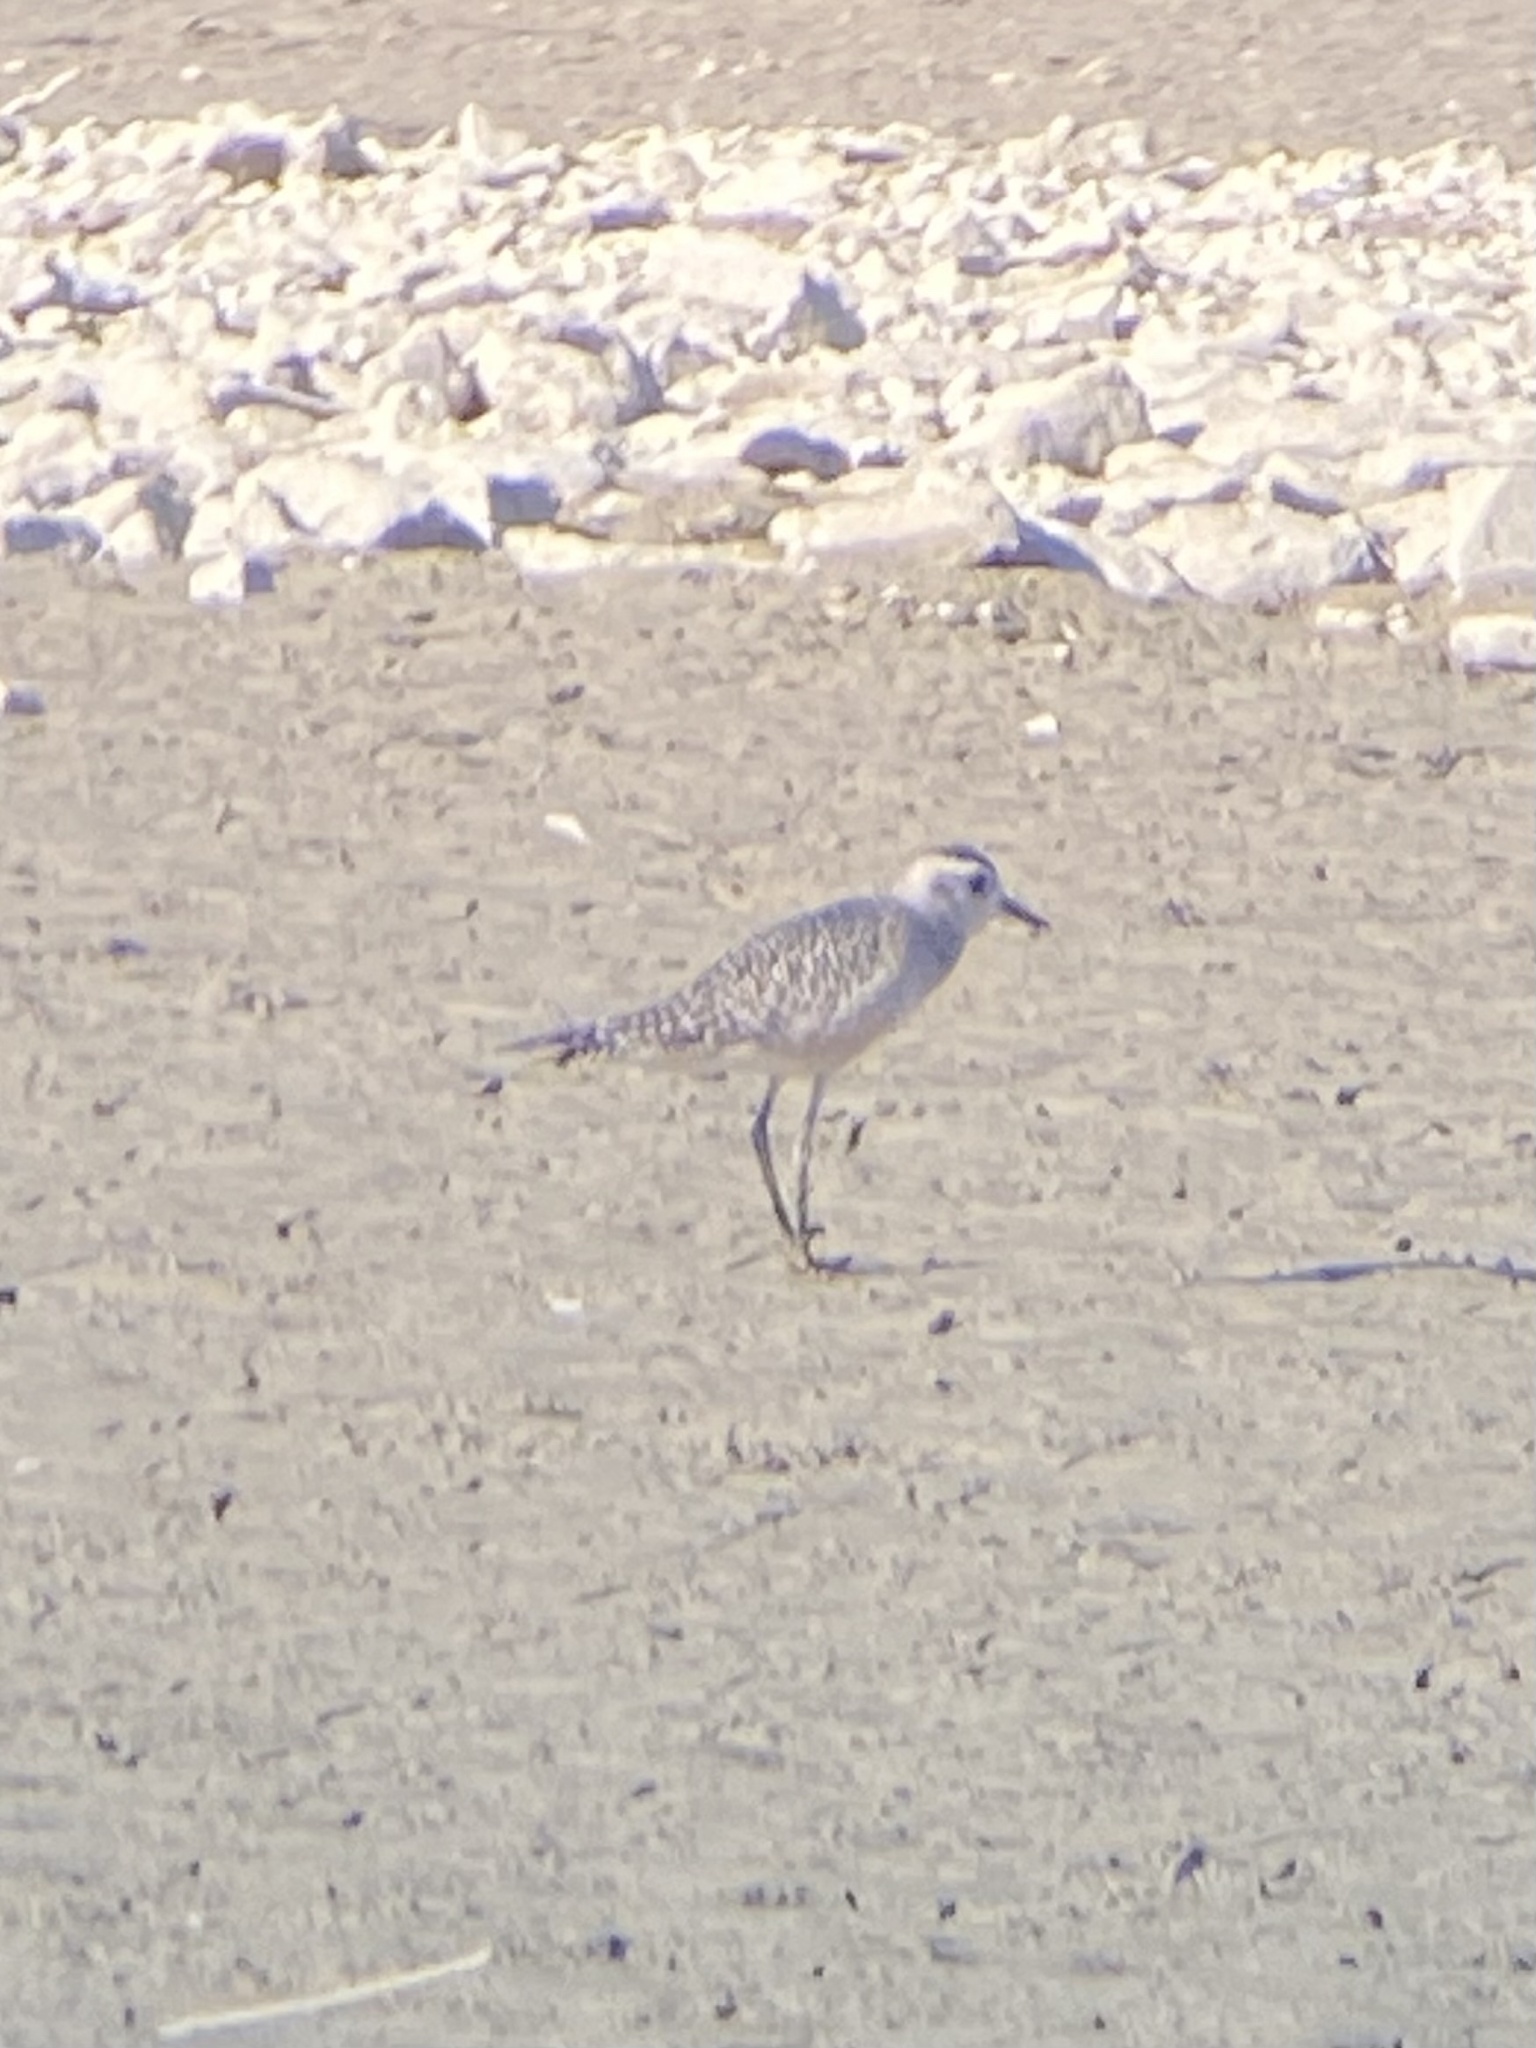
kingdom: Animalia
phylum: Chordata
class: Aves
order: Charadriiformes
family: Charadriidae
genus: Pluvialis
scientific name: Pluvialis dominica
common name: American golden plover
